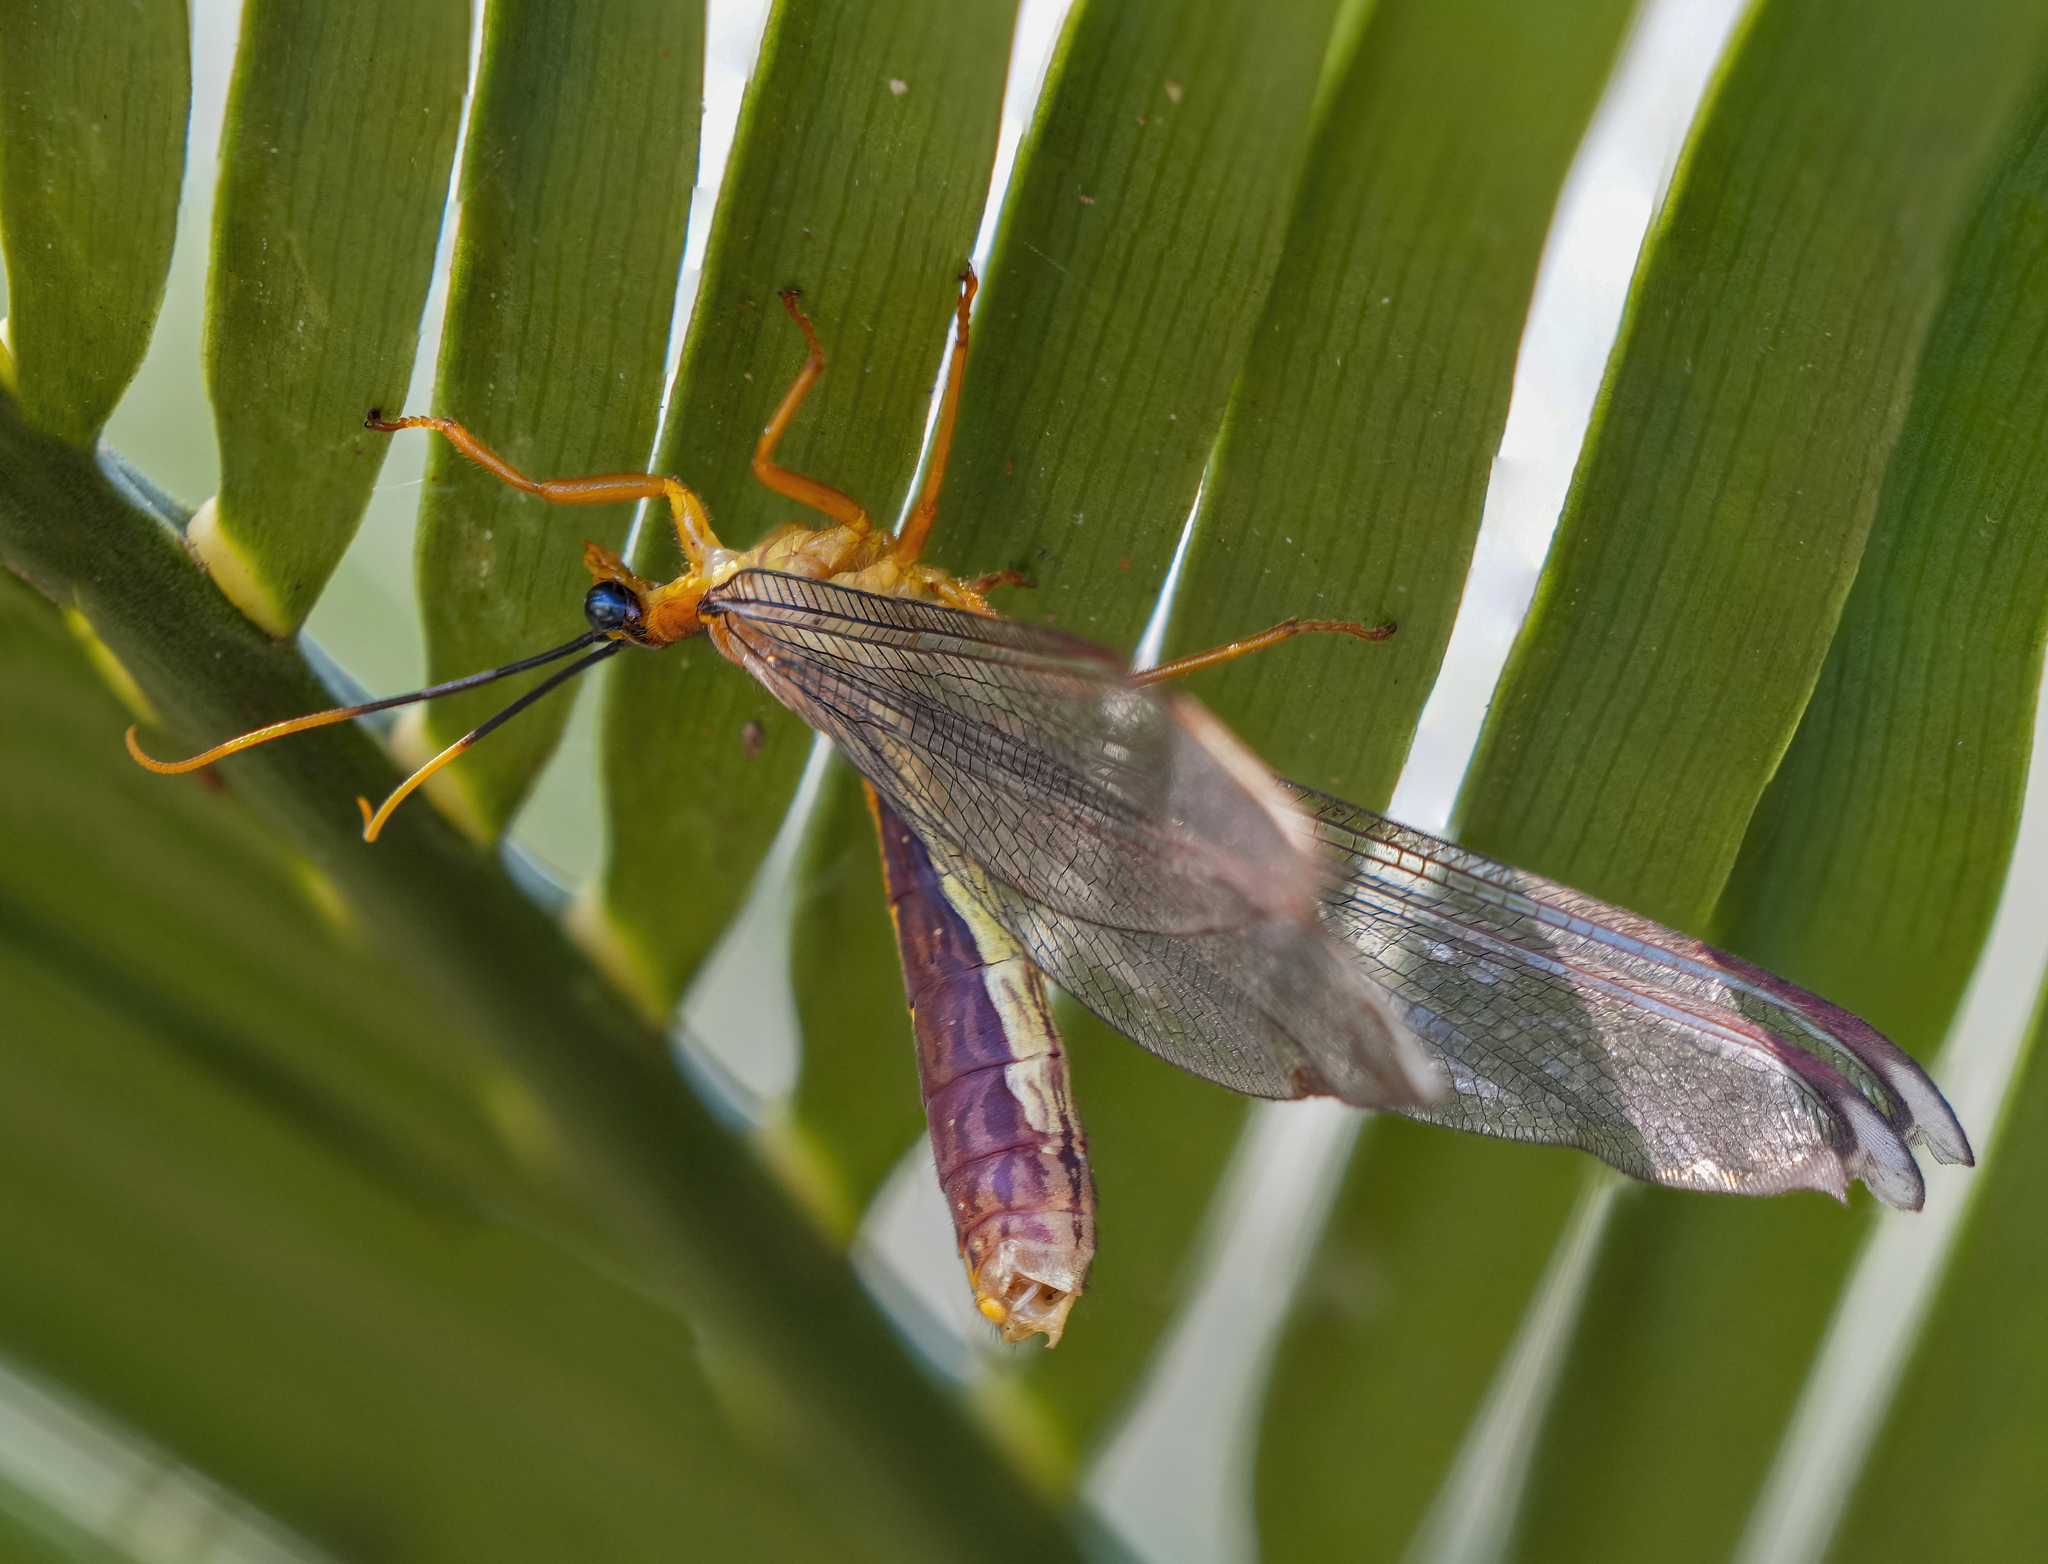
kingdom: Animalia
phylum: Arthropoda
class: Insecta
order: Neuroptera
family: Nymphidae
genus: Nymphes
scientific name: Nymphes myrmeleonoides
